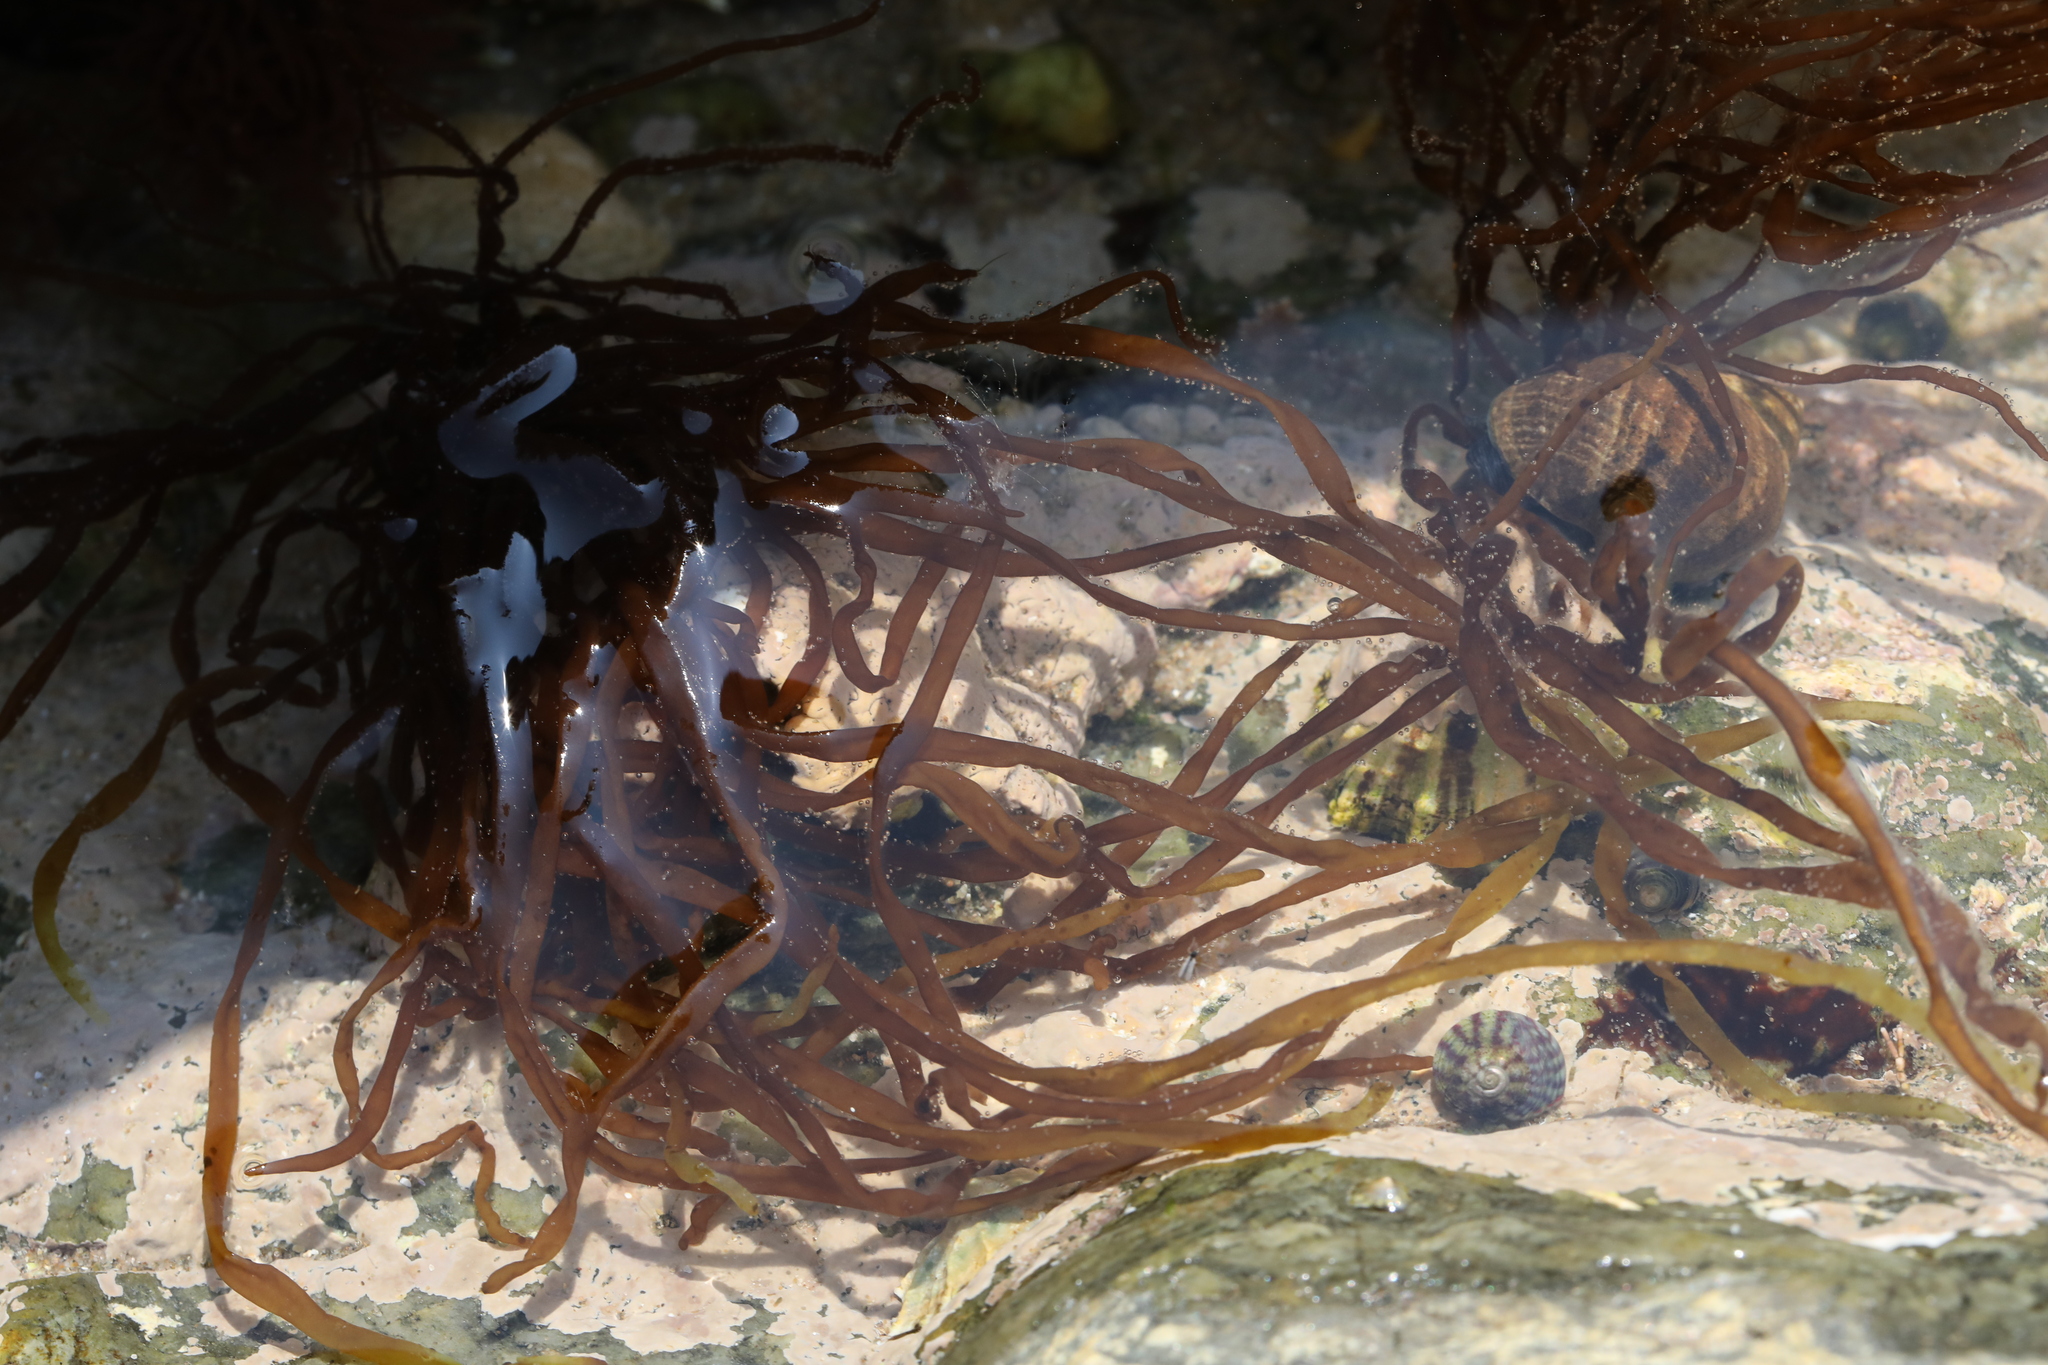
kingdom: Chromista
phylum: Ochrophyta
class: Phaeophyceae
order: Scytosiphonales
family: Scytosiphonaceae
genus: Scytosiphon
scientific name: Scytosiphon lomentaria
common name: Beanweed
